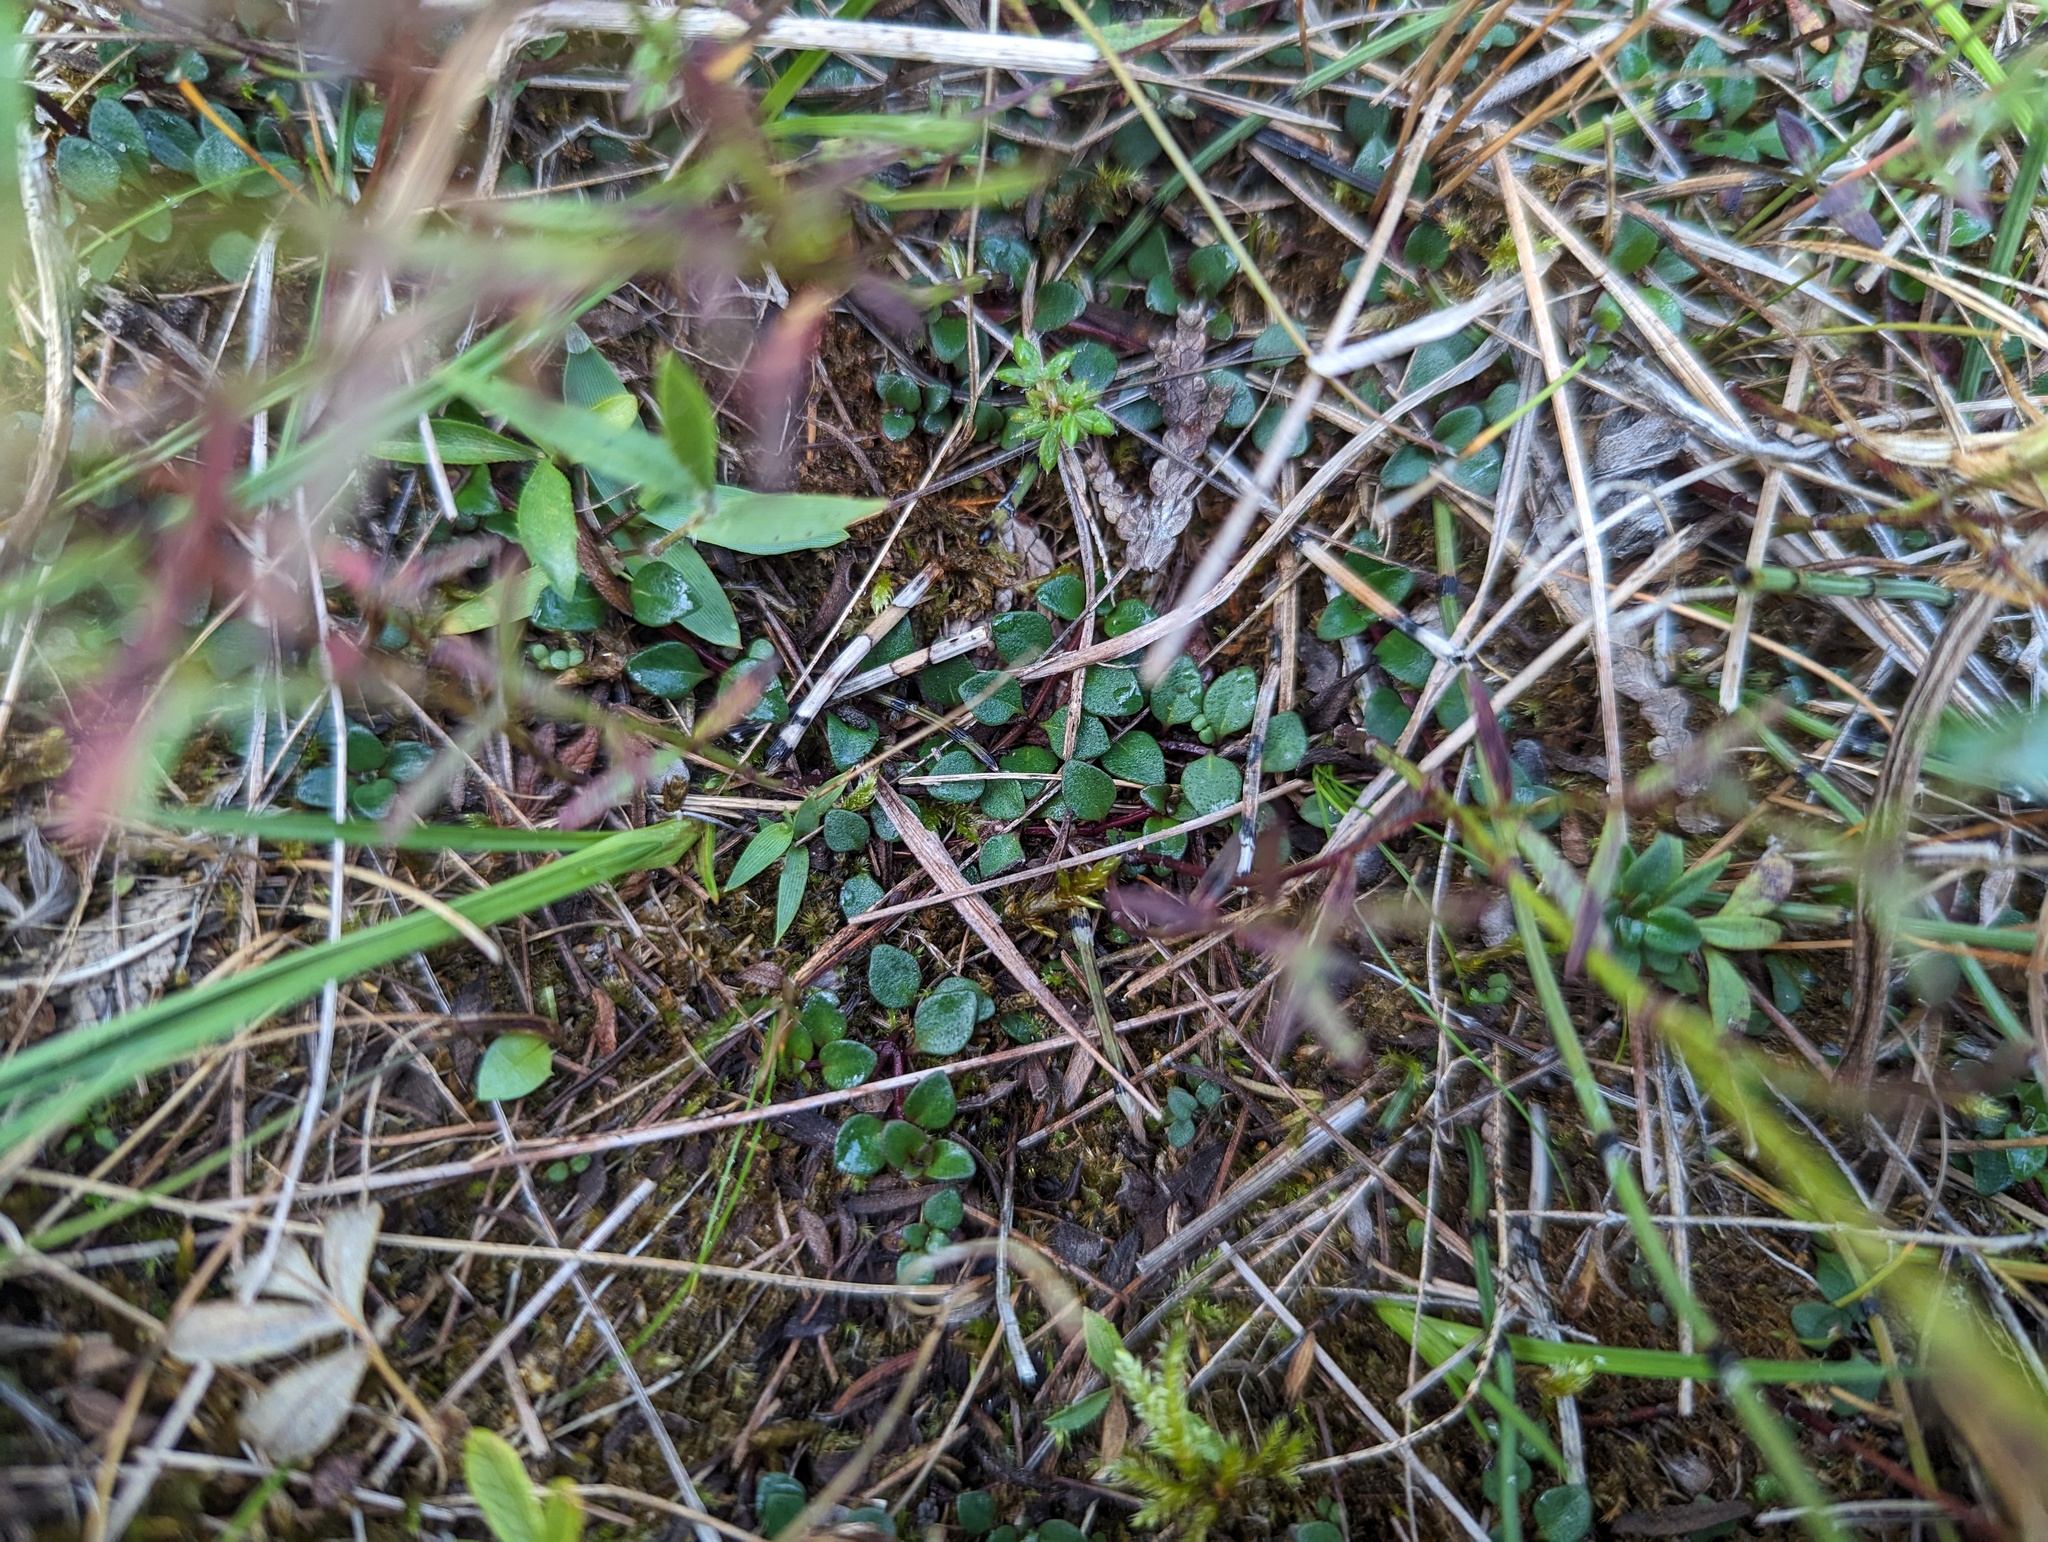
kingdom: Plantae
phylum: Tracheophyta
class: Magnoliopsida
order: Ericales
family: Ericaceae
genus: Gaultheria
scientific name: Gaultheria hispidula
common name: Cancer wintergreen
